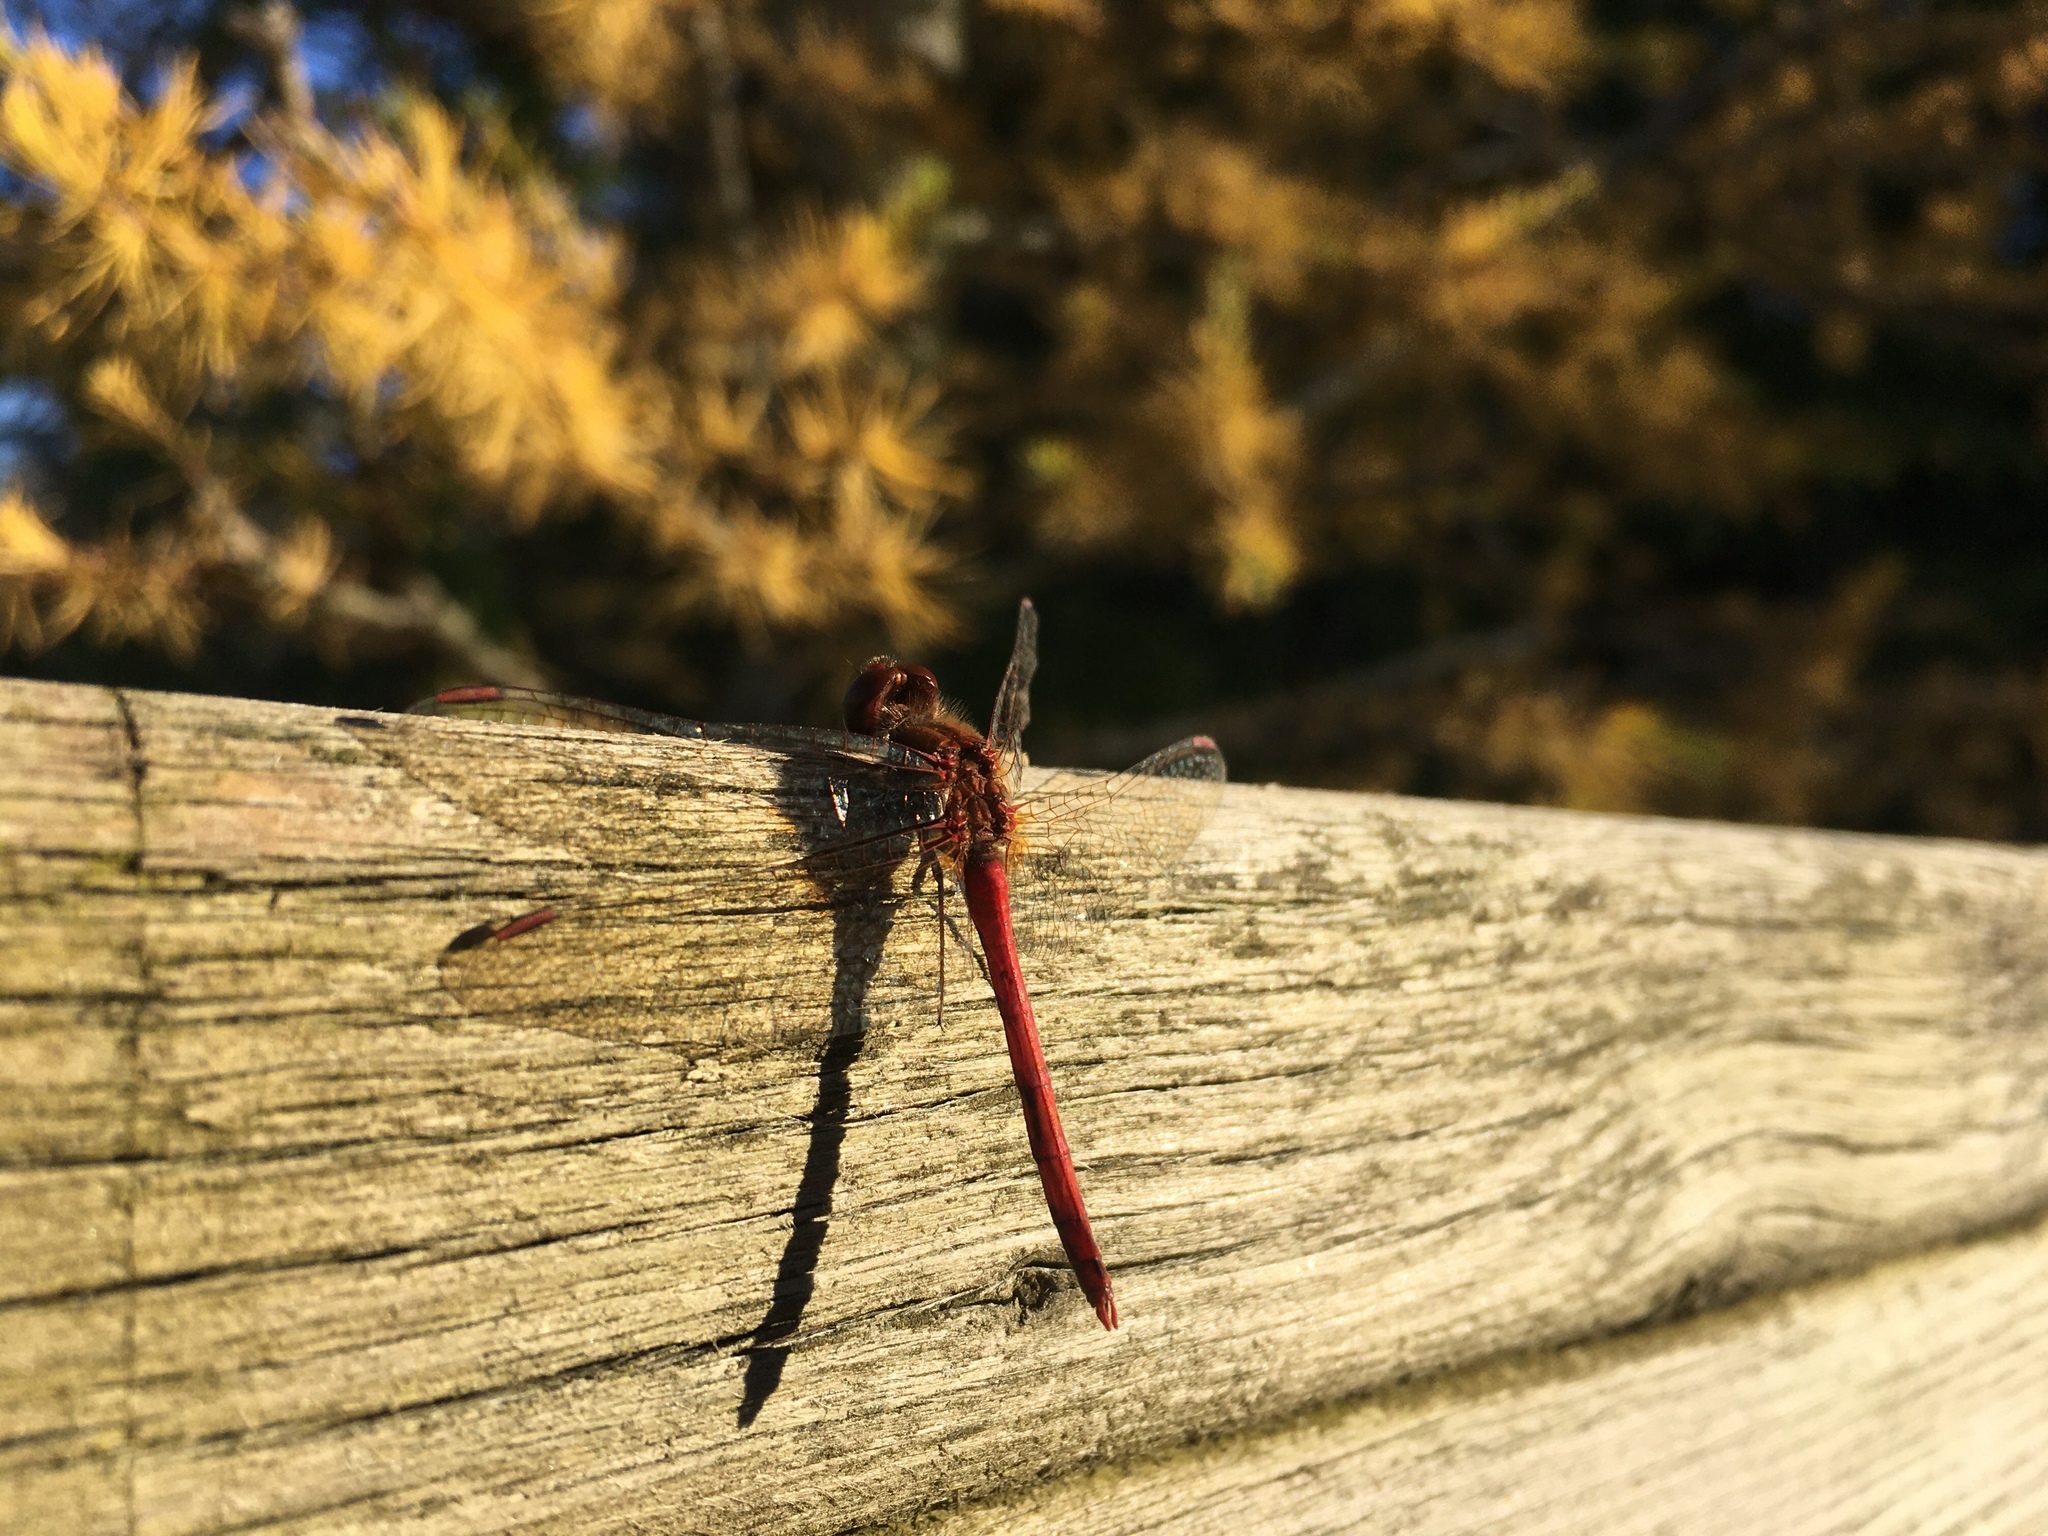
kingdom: Animalia
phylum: Arthropoda
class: Insecta
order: Odonata
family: Libellulidae
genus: Sympetrum
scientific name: Sympetrum vicinum
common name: Autumn meadowhawk
